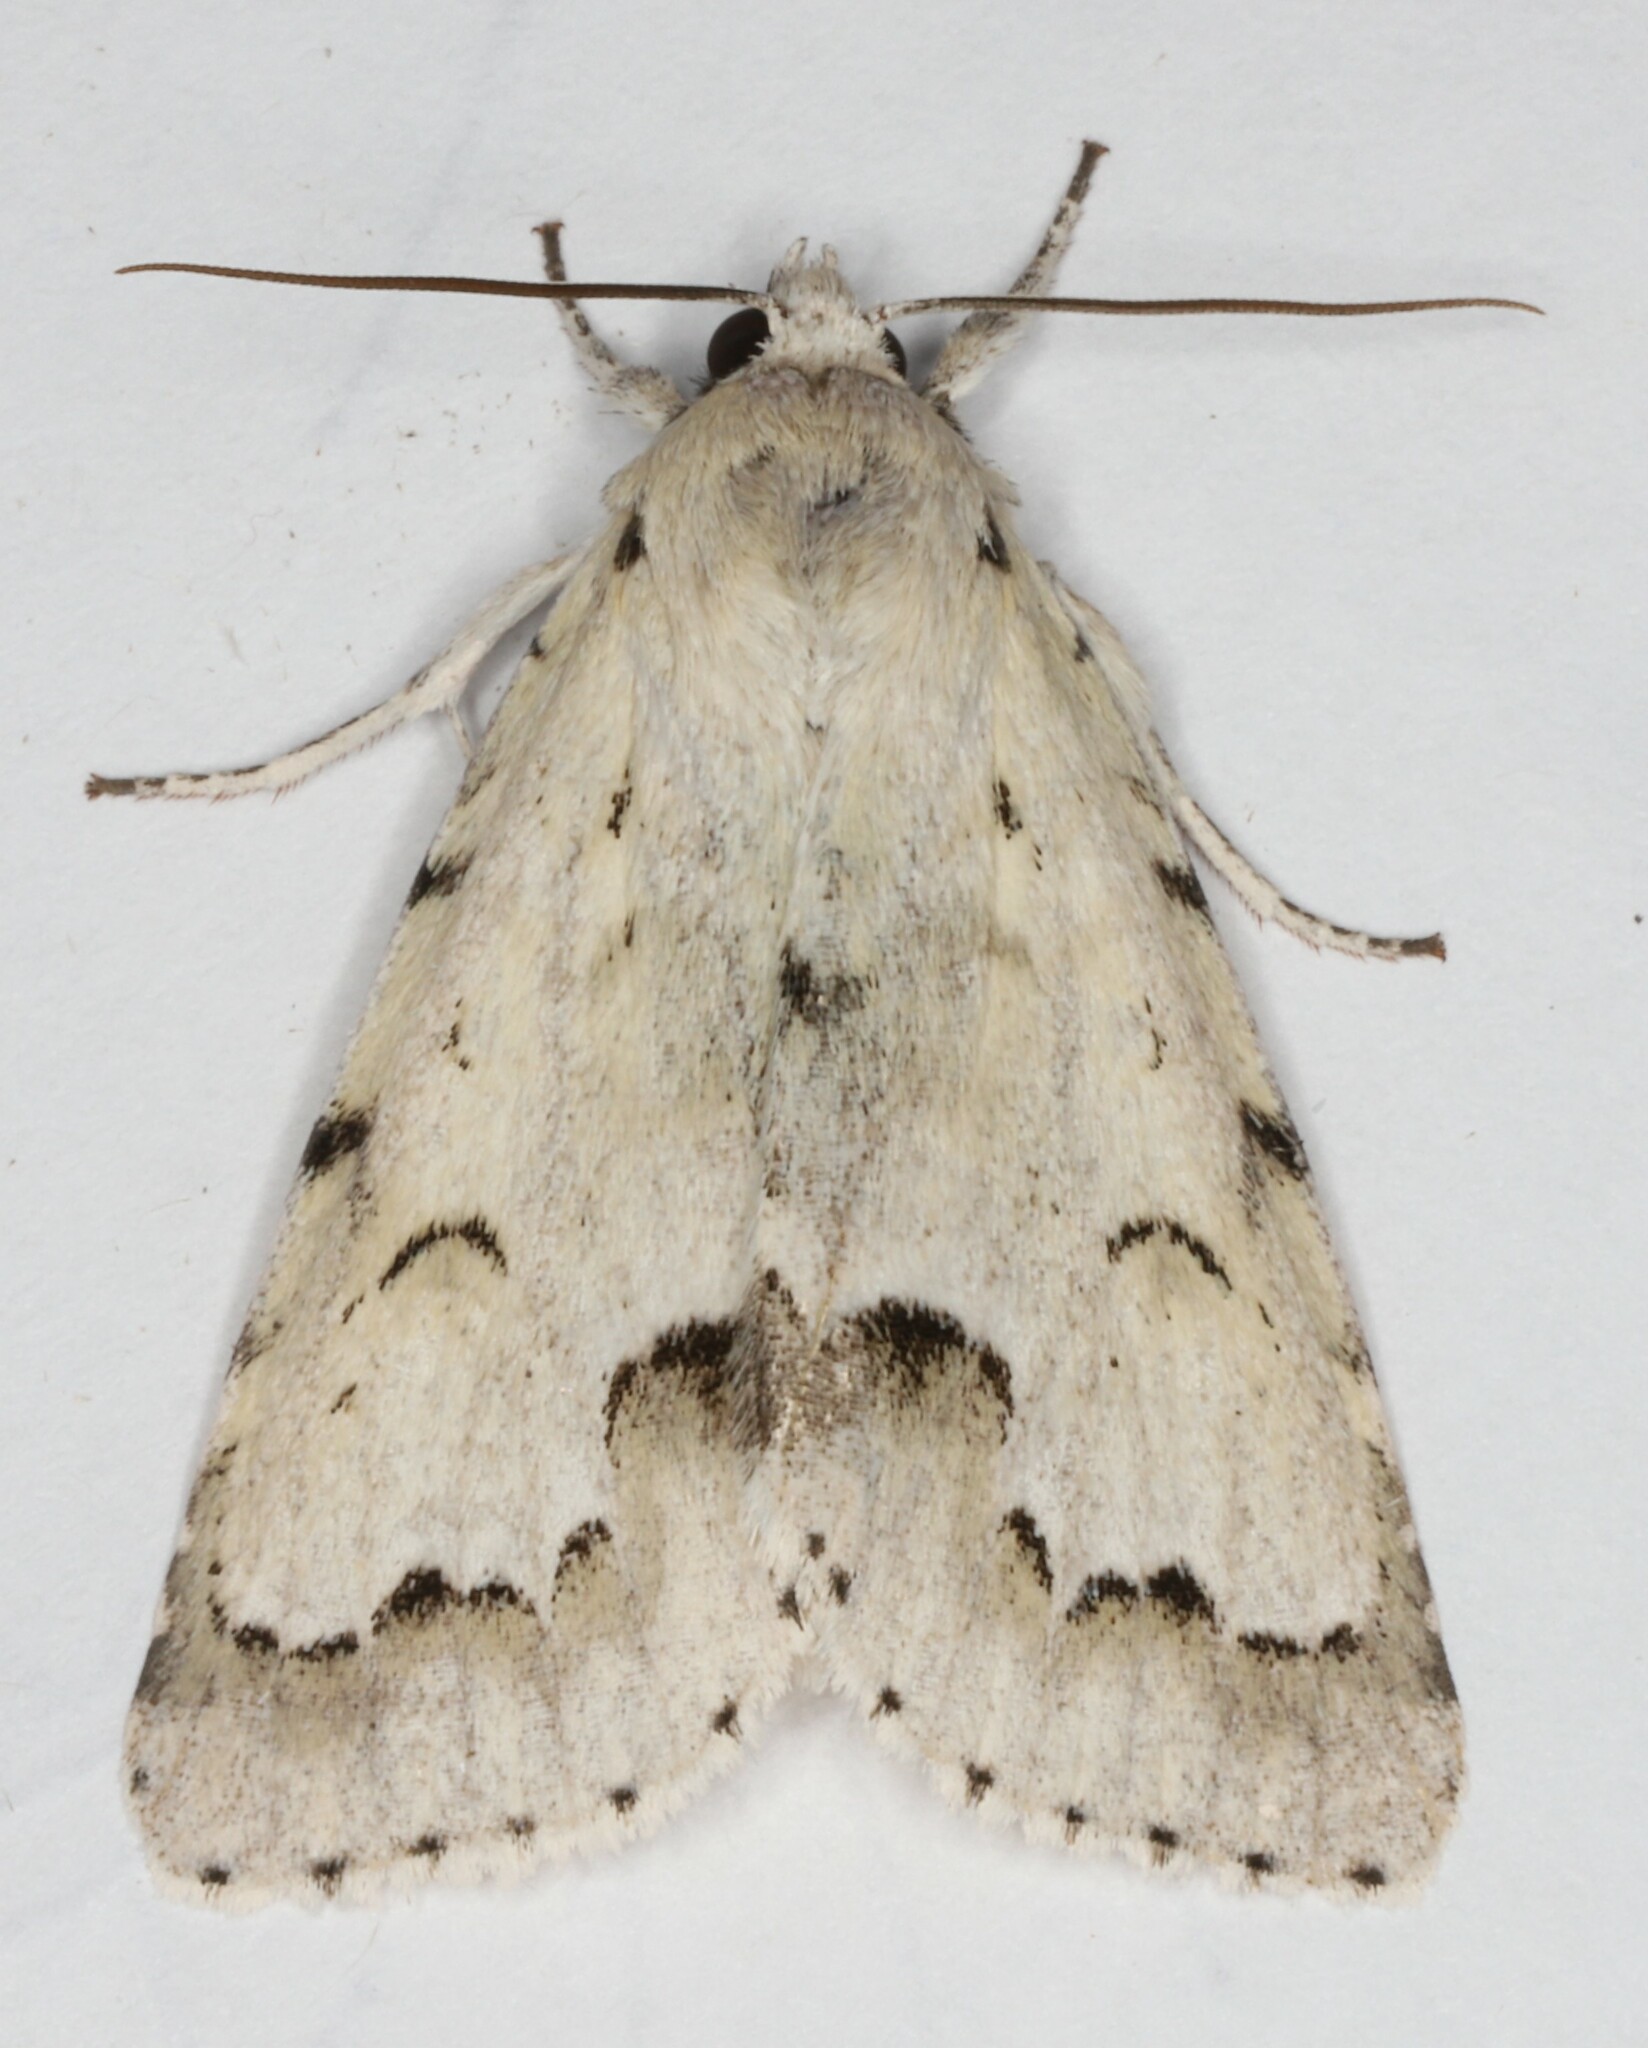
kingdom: Animalia
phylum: Arthropoda
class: Insecta
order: Lepidoptera
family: Noctuidae
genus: Acronicta
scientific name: Acronicta innotata
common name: Unmarked dagger
